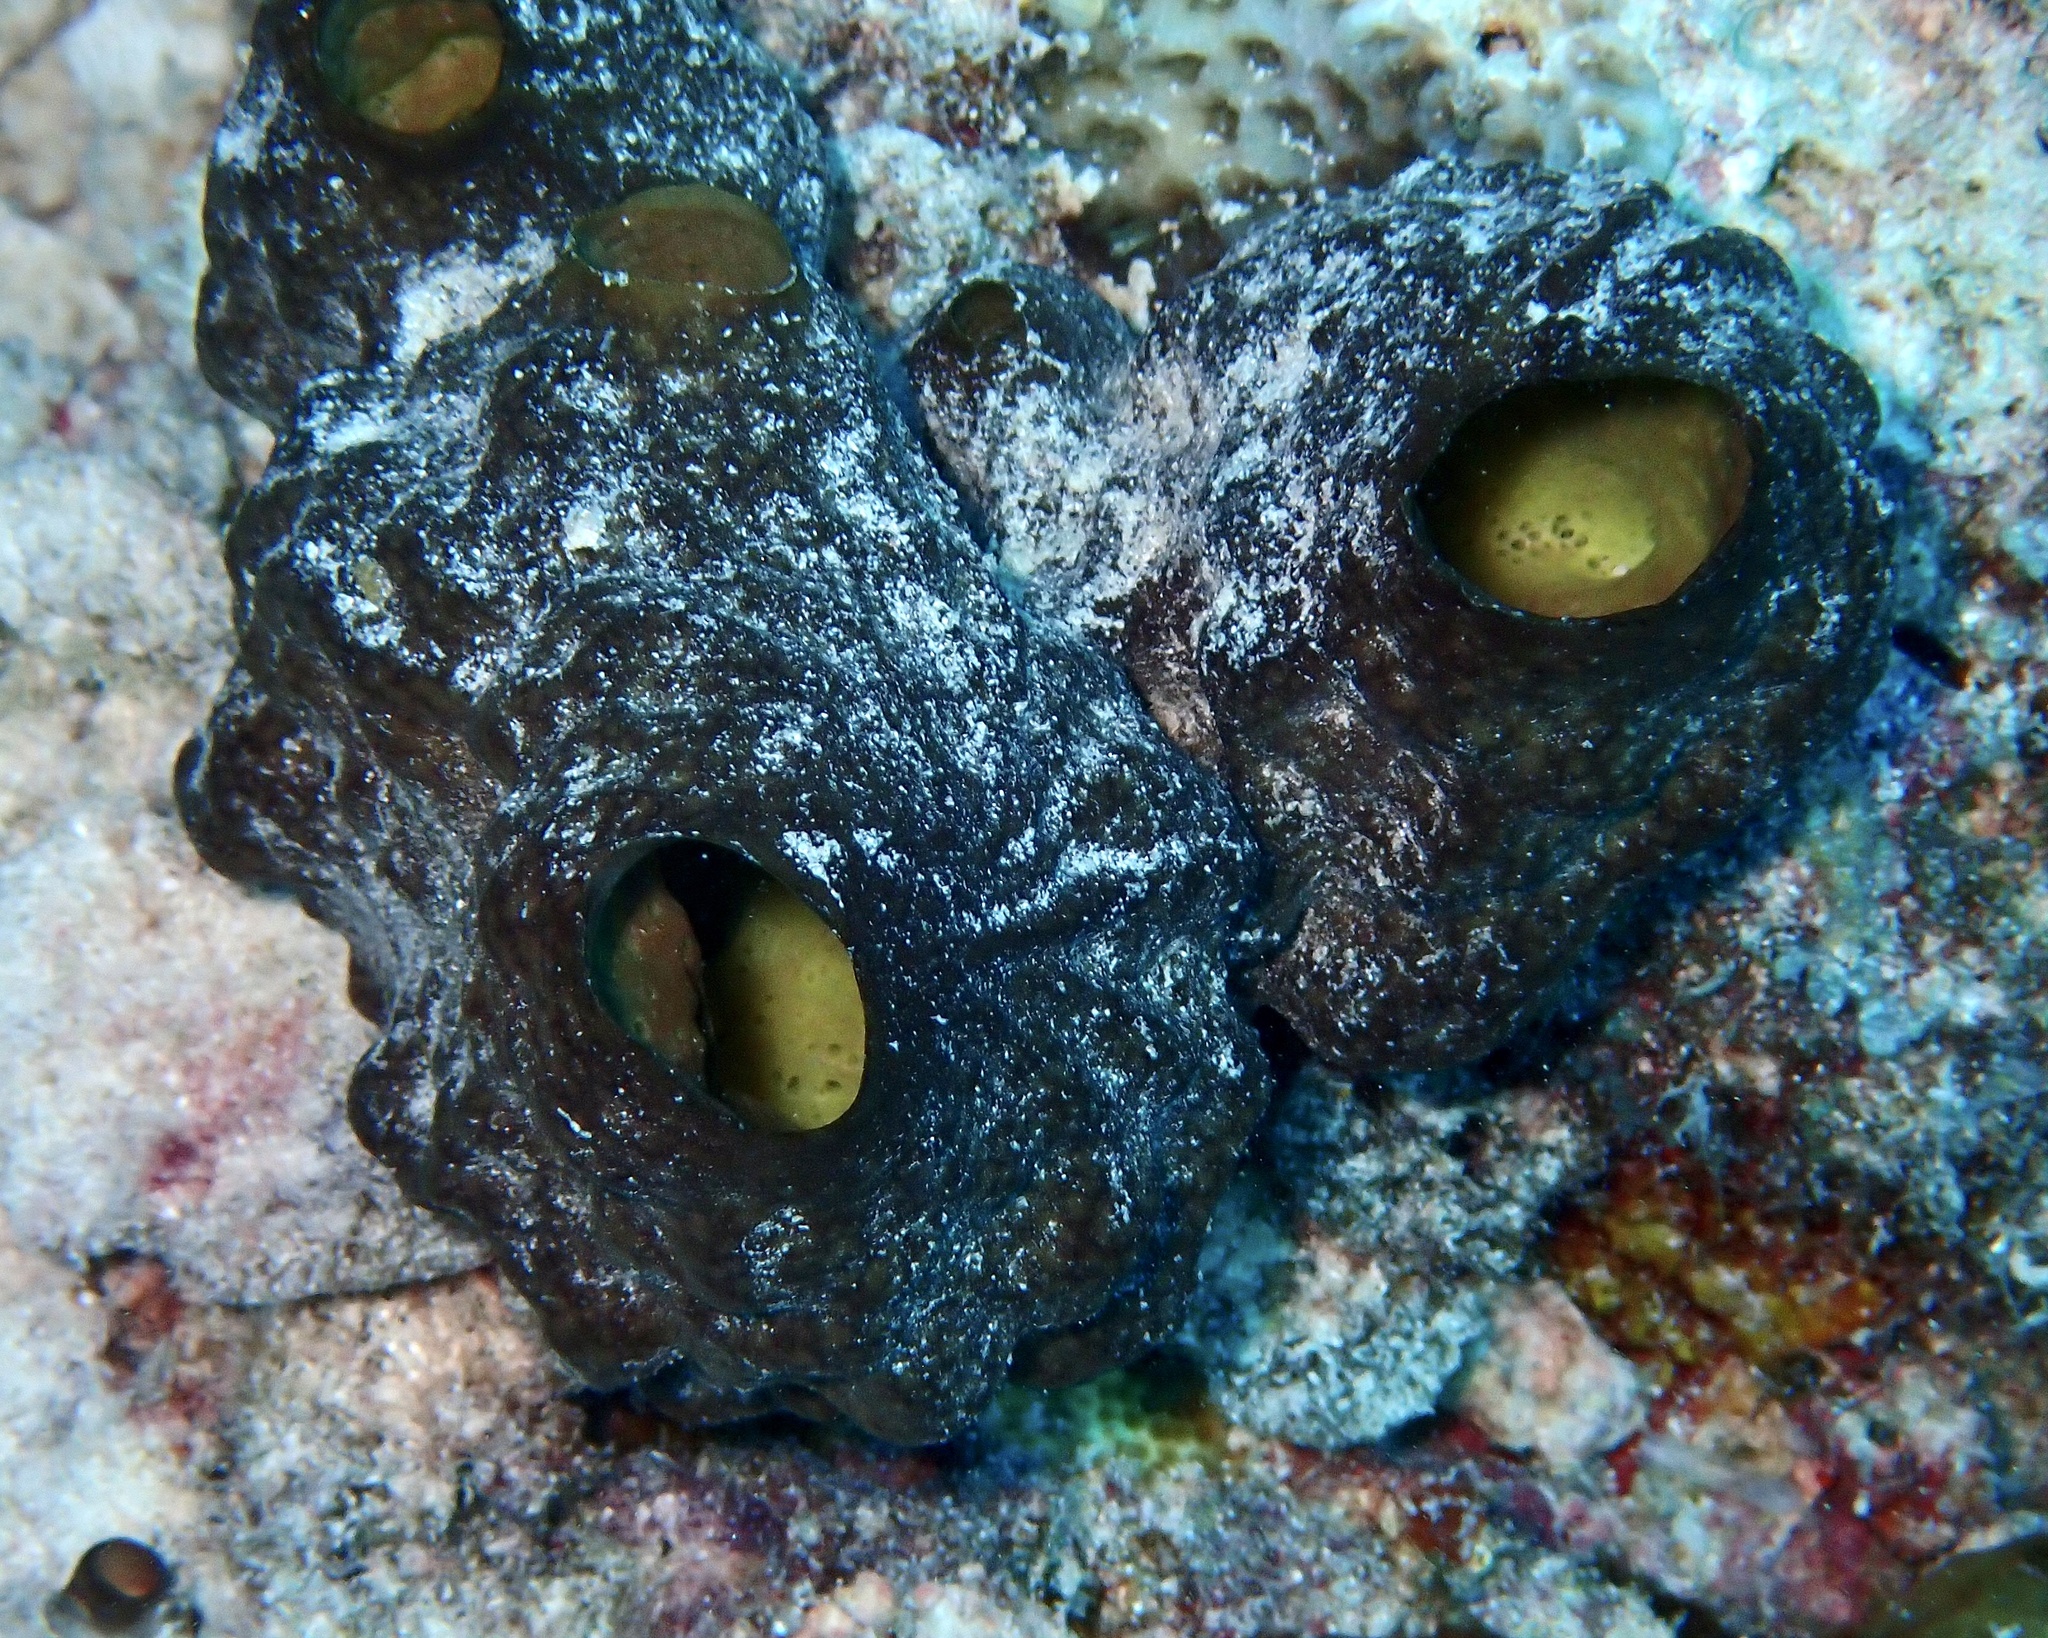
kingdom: Animalia
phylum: Porifera
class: Calcarea
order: Clathrinida
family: Leucettidae
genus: Leucetta
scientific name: Leucetta avocada
